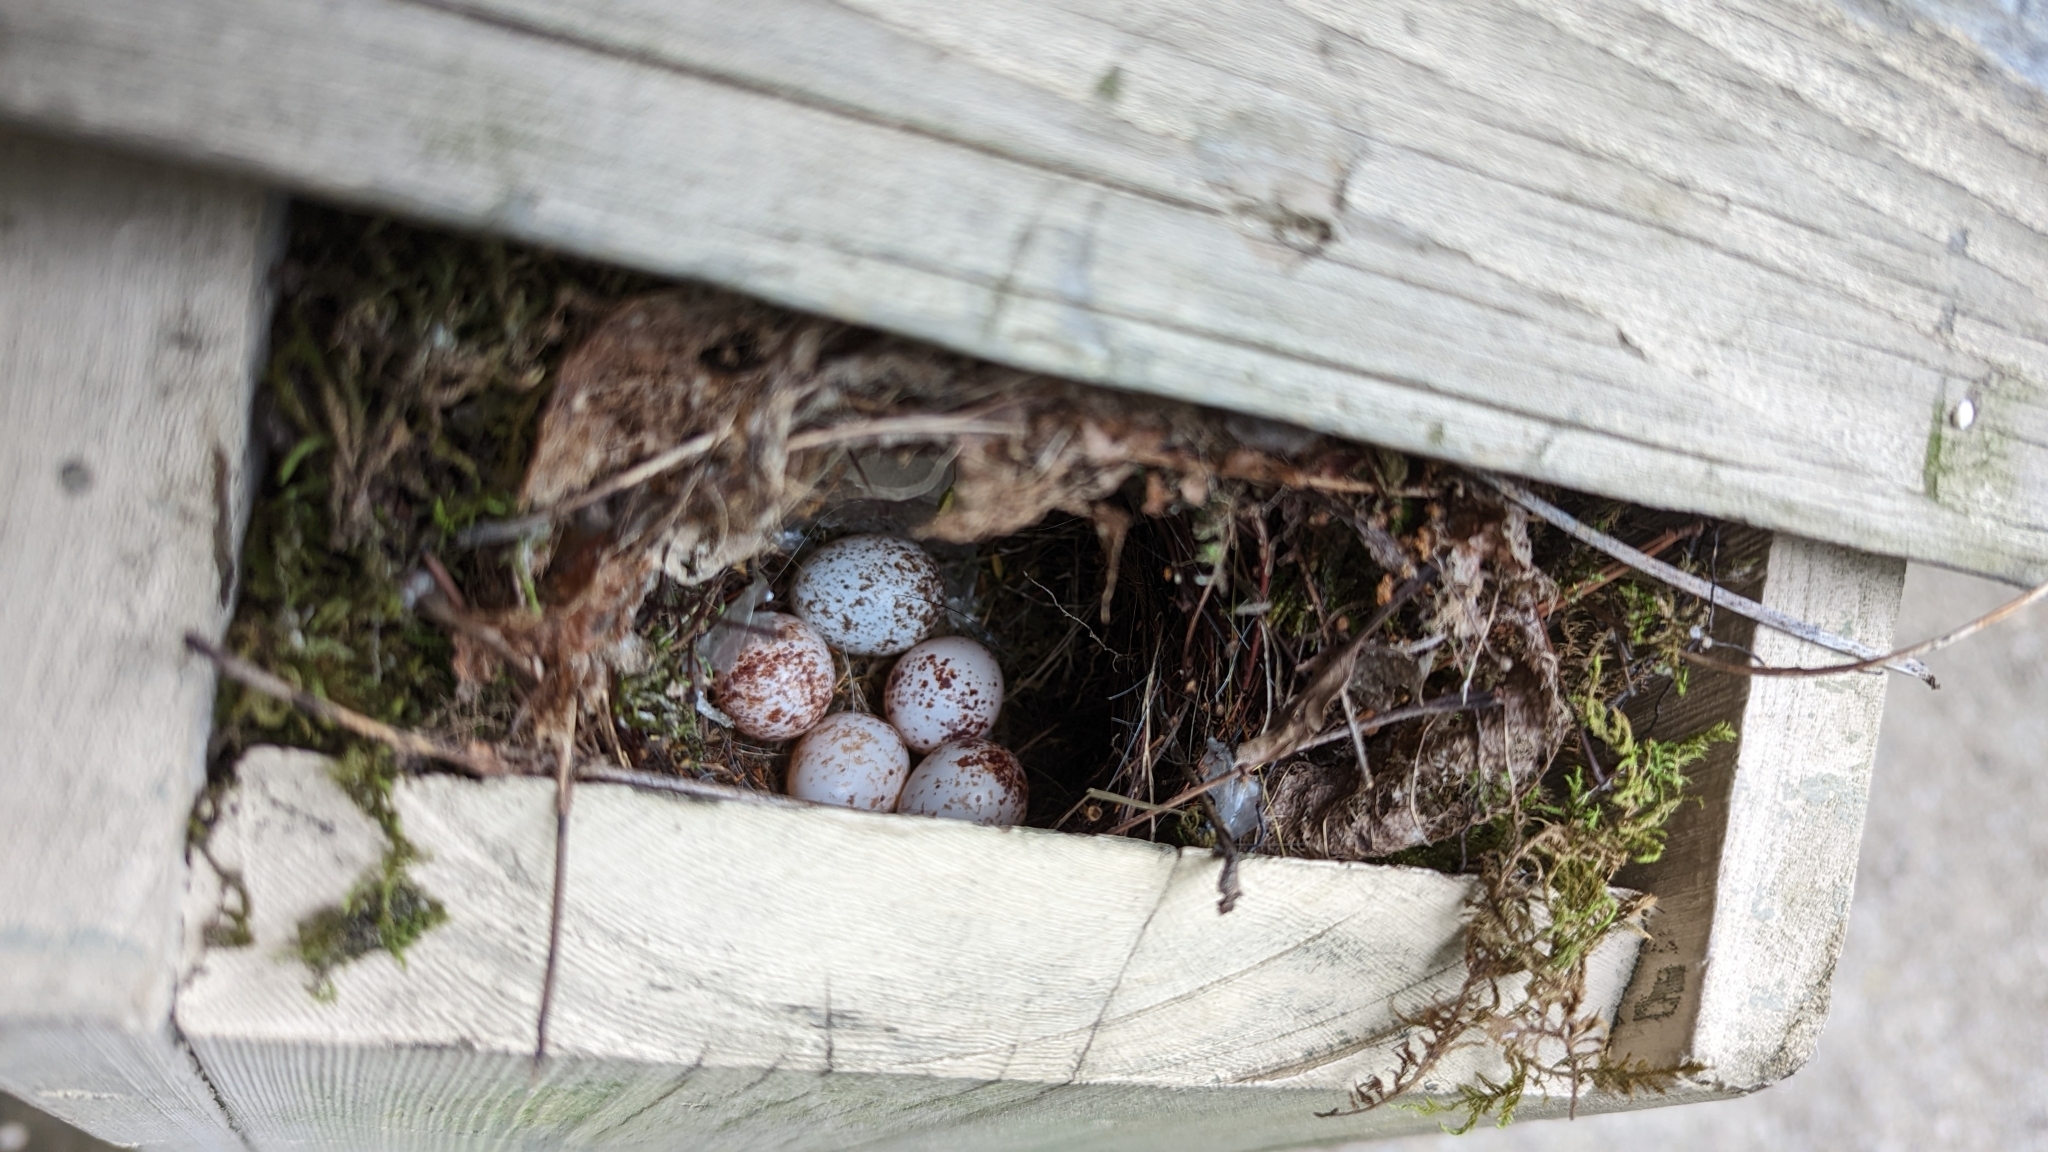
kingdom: Animalia
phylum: Chordata
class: Aves
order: Passeriformes
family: Troglodytidae
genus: Thryothorus
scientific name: Thryothorus ludovicianus
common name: Carolina wren
